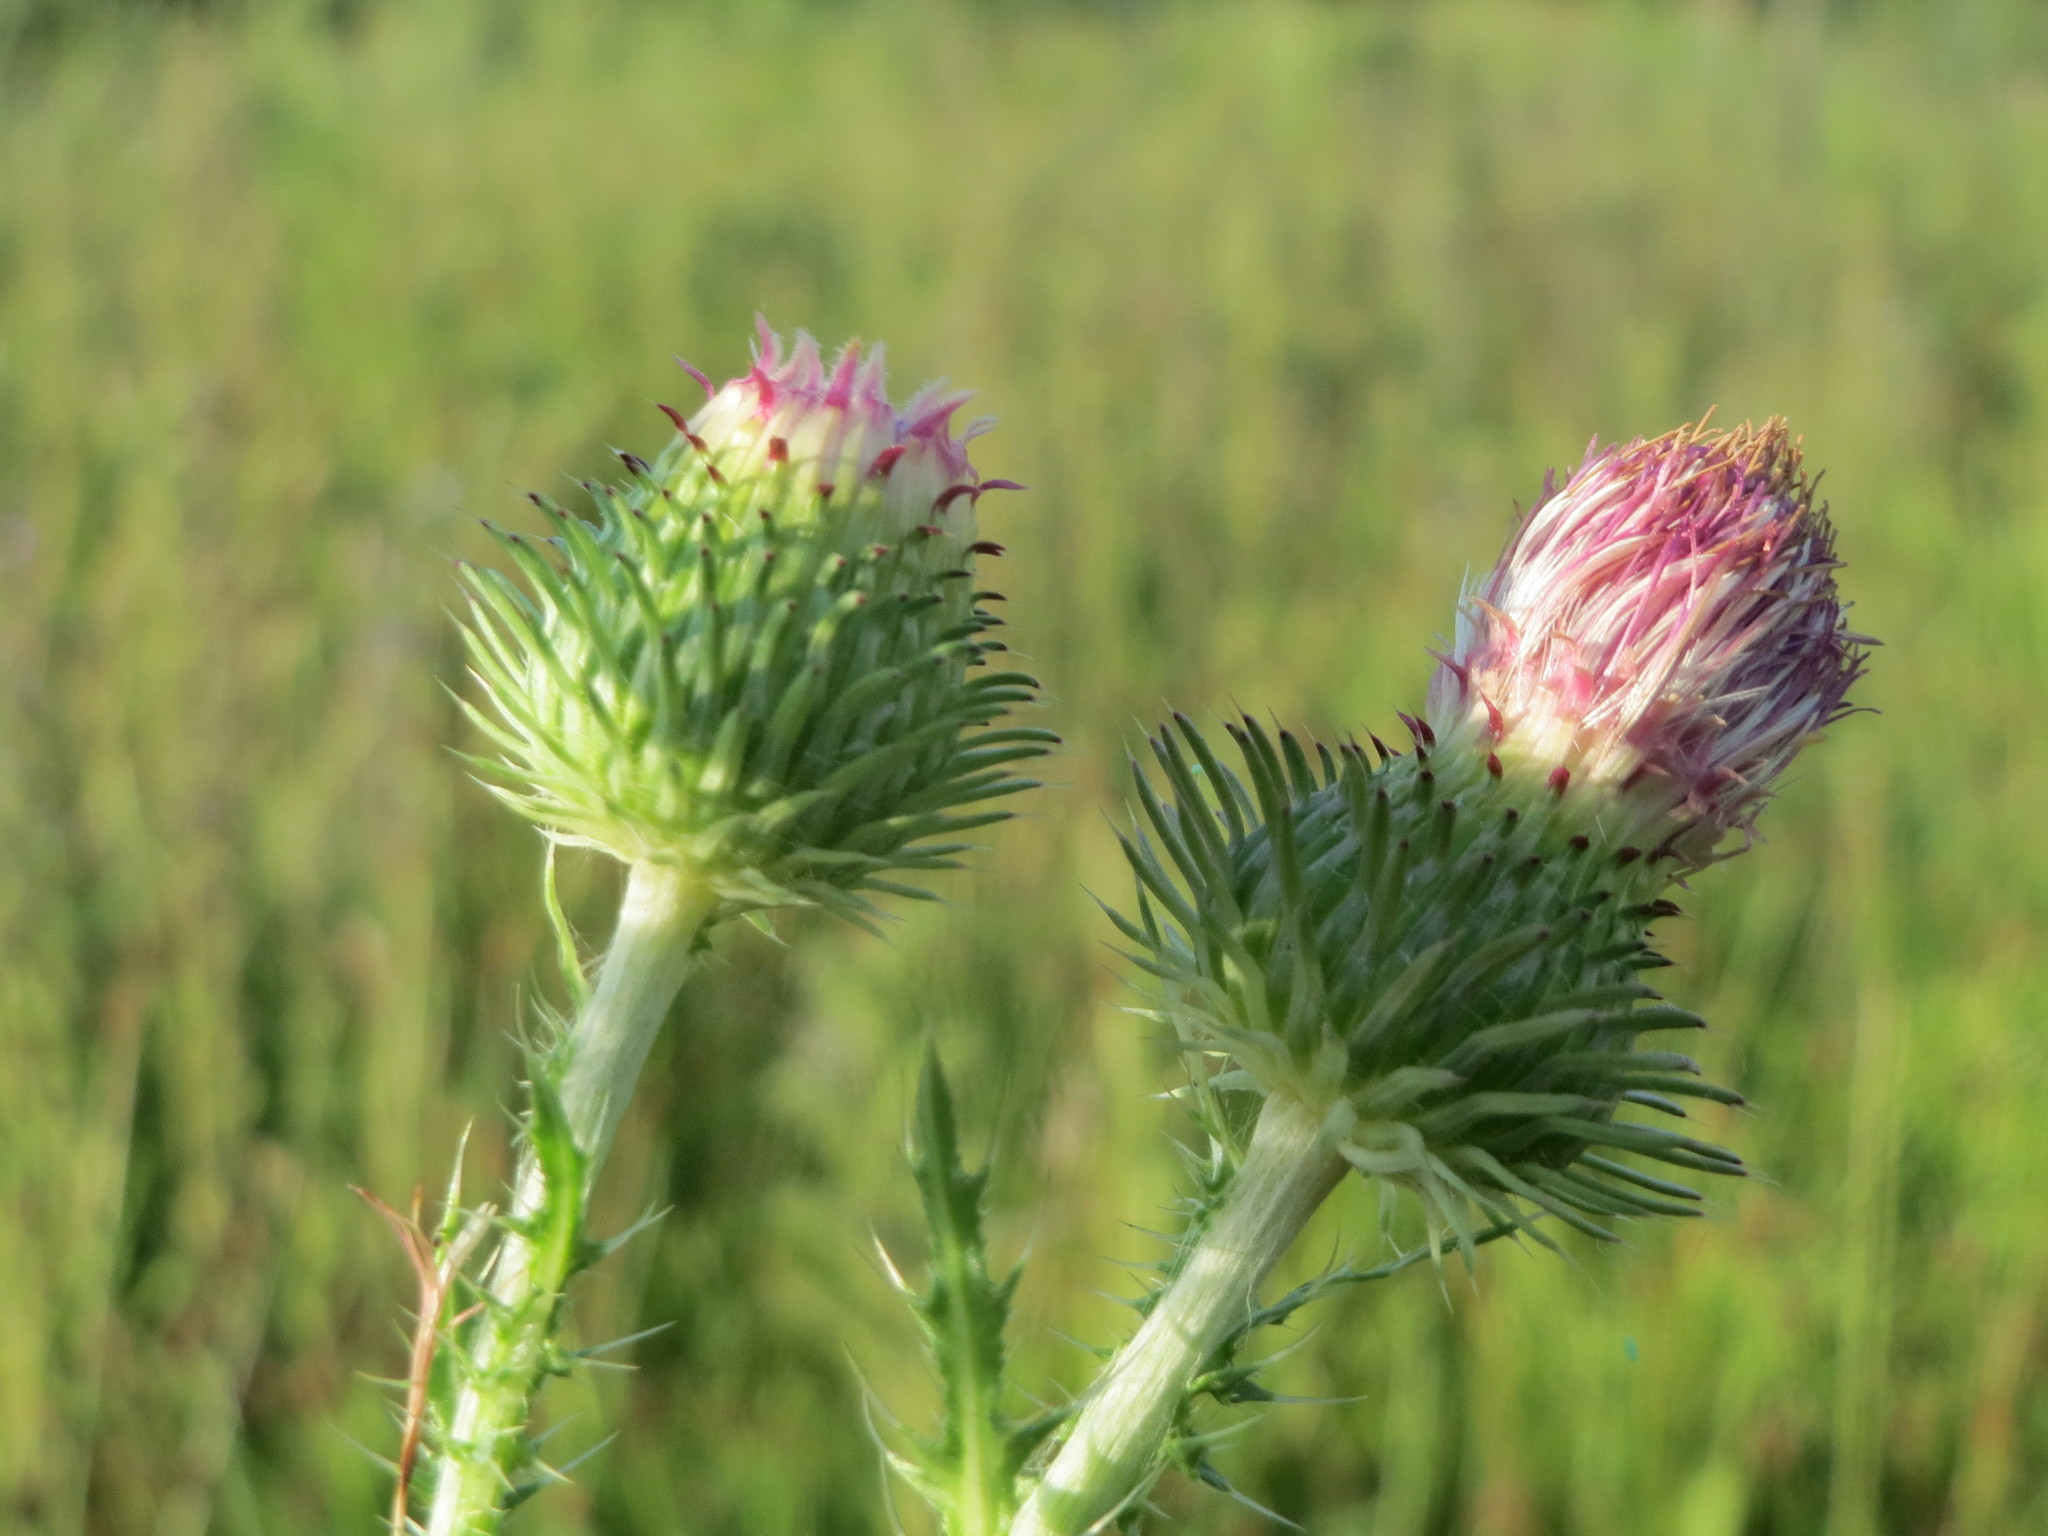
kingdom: Plantae
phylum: Tracheophyta
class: Magnoliopsida
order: Asterales
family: Asteraceae
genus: Carduus
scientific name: Carduus acanthoides
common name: Plumeless thistle
